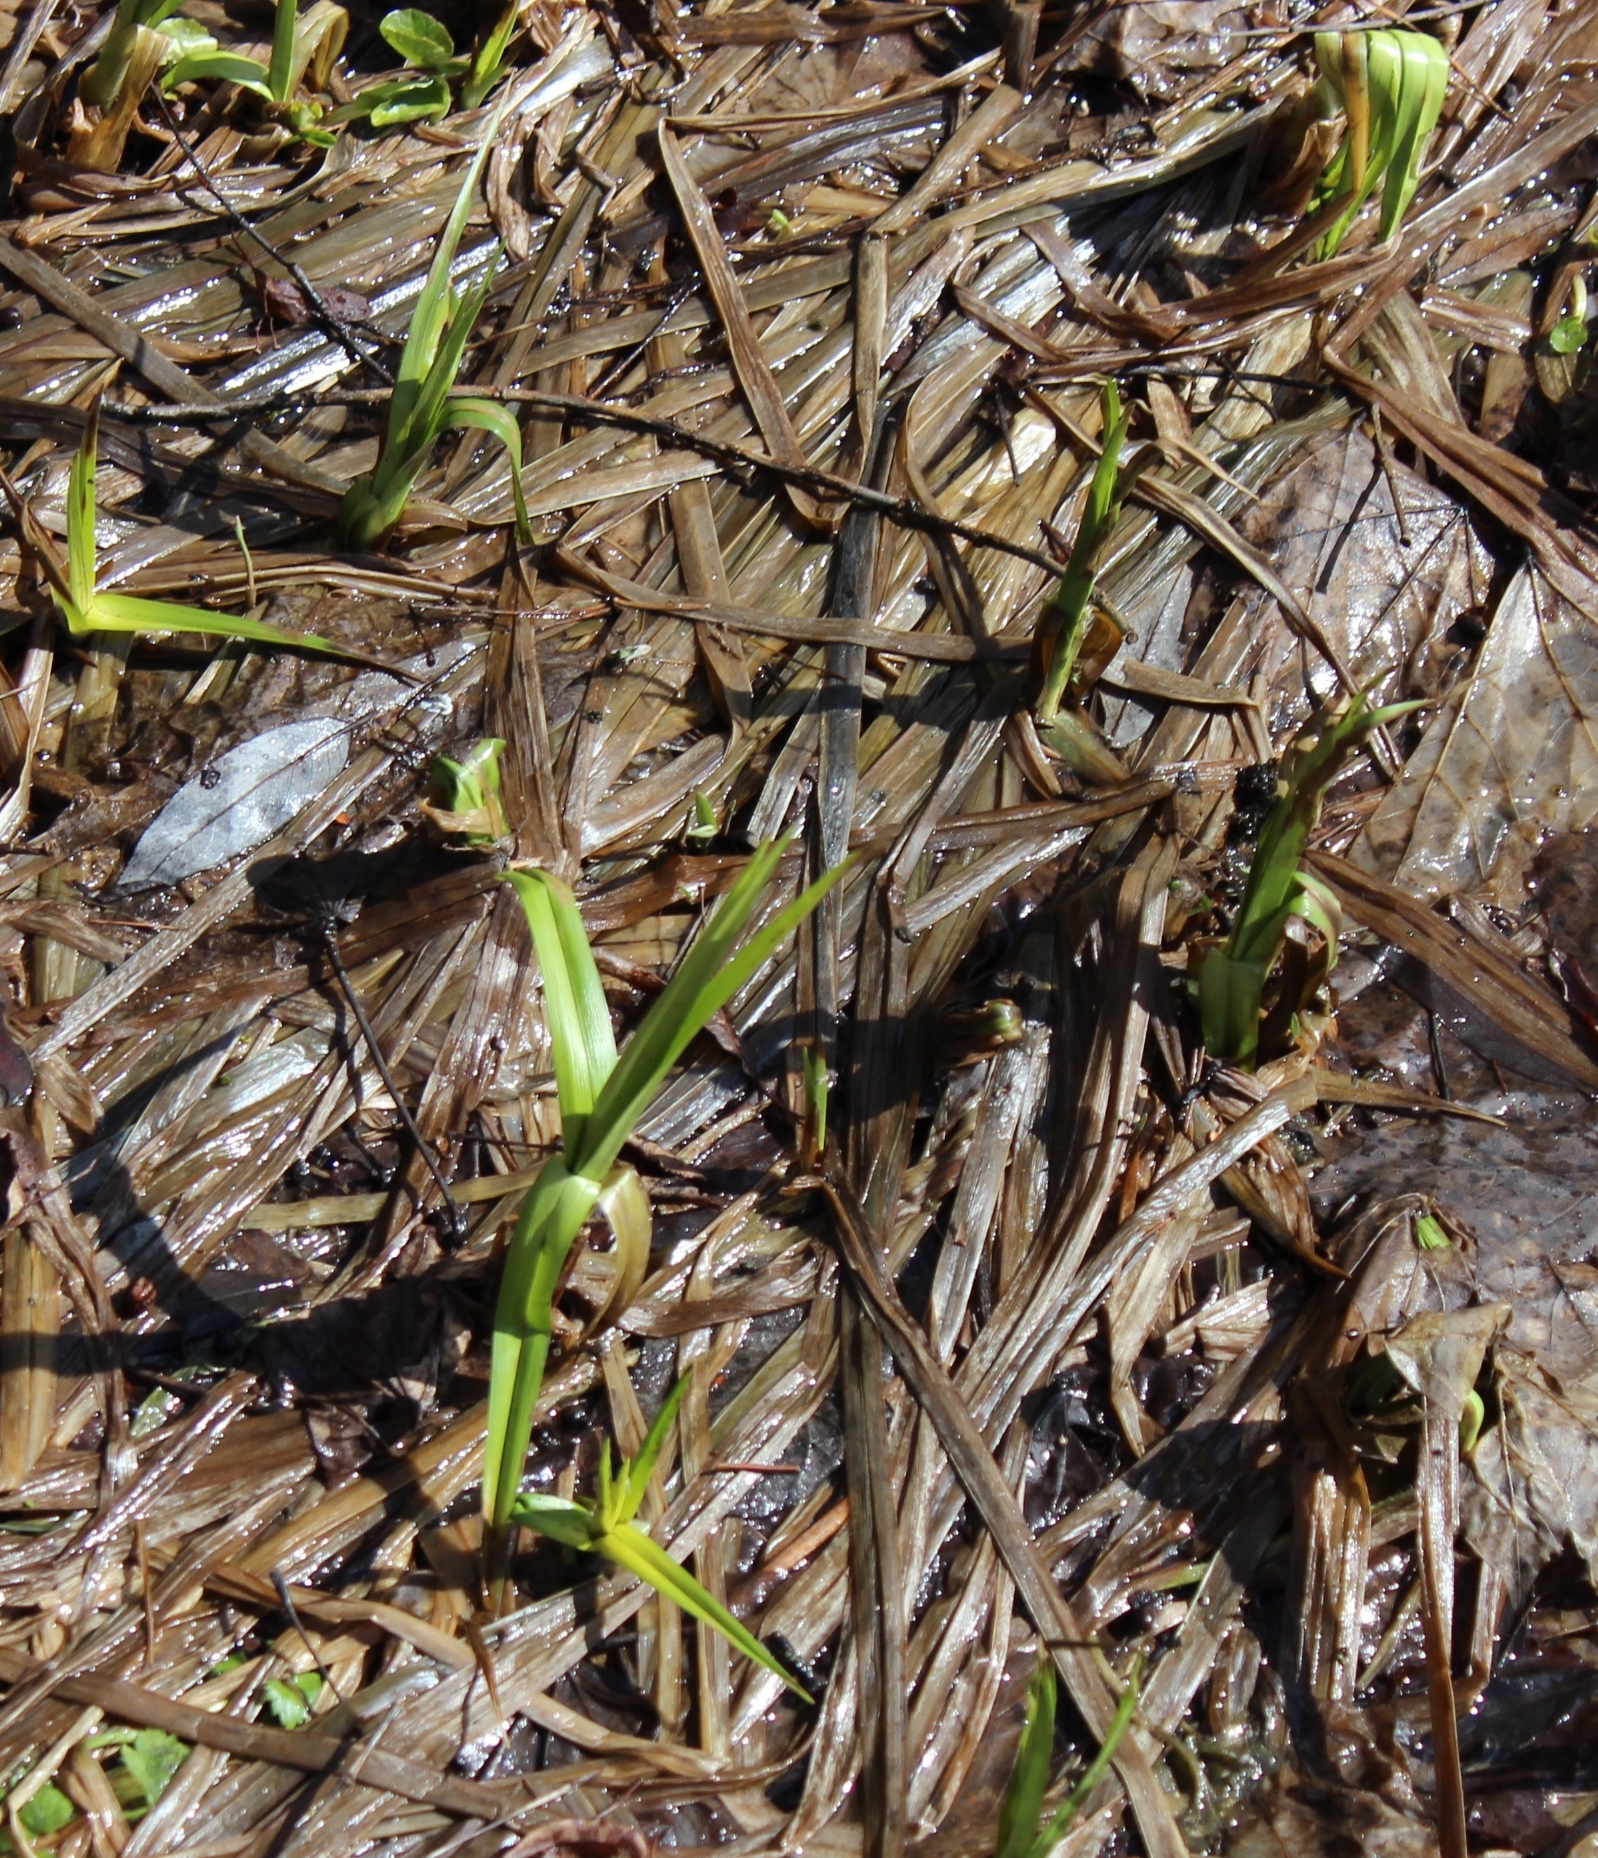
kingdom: Plantae
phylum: Tracheophyta
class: Liliopsida
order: Poales
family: Cyperaceae
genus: Scirpus
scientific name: Scirpus sylvaticus
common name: Wood club-rush
